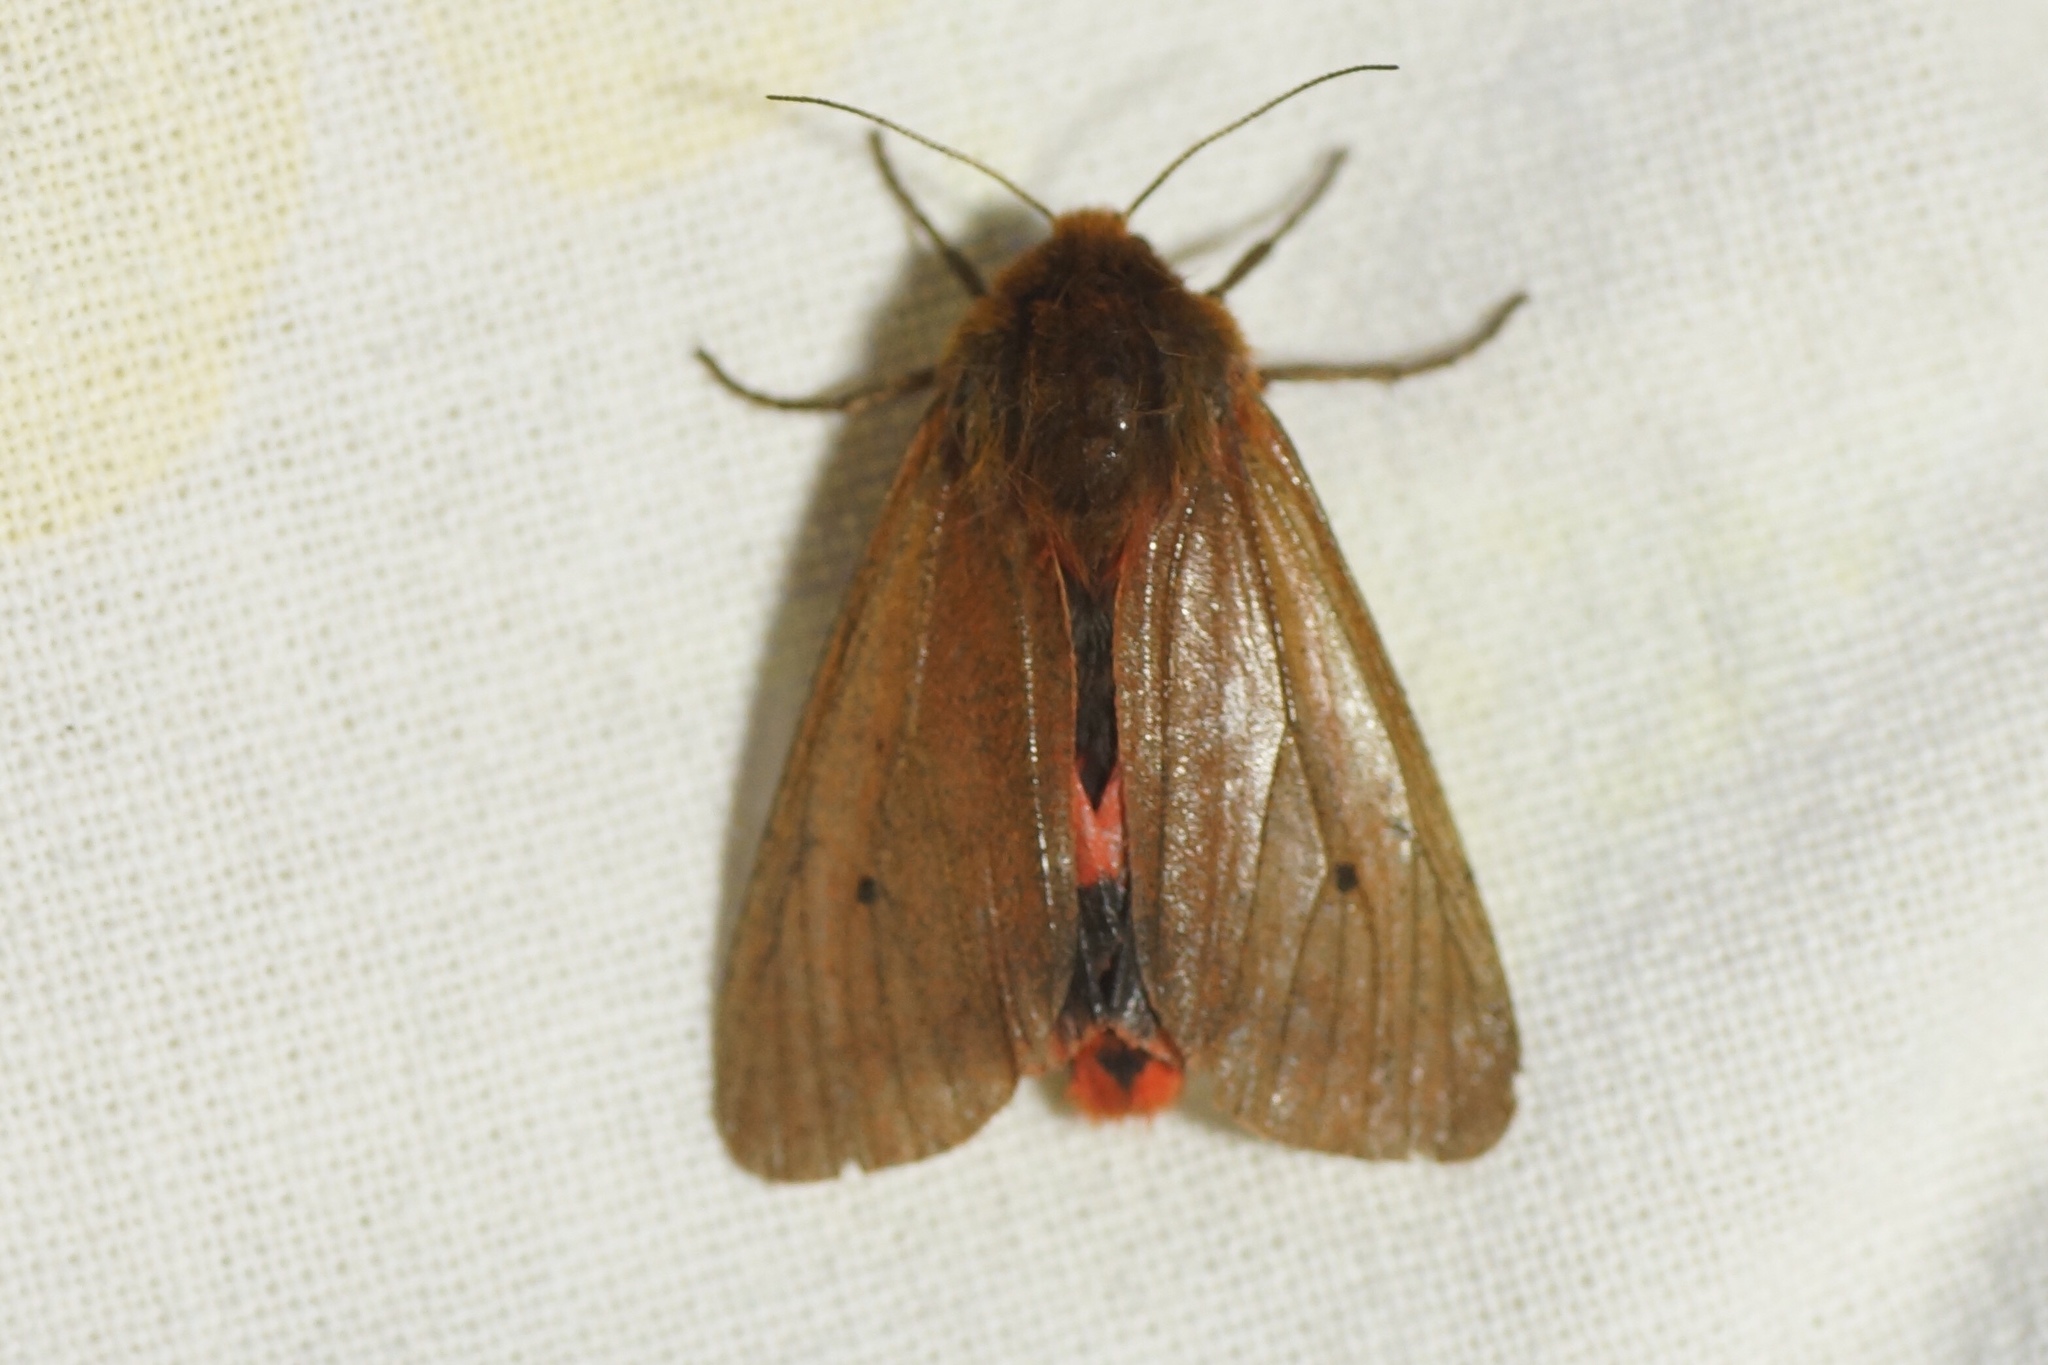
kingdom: Animalia
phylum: Arthropoda
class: Insecta
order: Lepidoptera
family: Erebidae
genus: Phragmatobia
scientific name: Phragmatobia fuliginosa
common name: Ruby tiger
